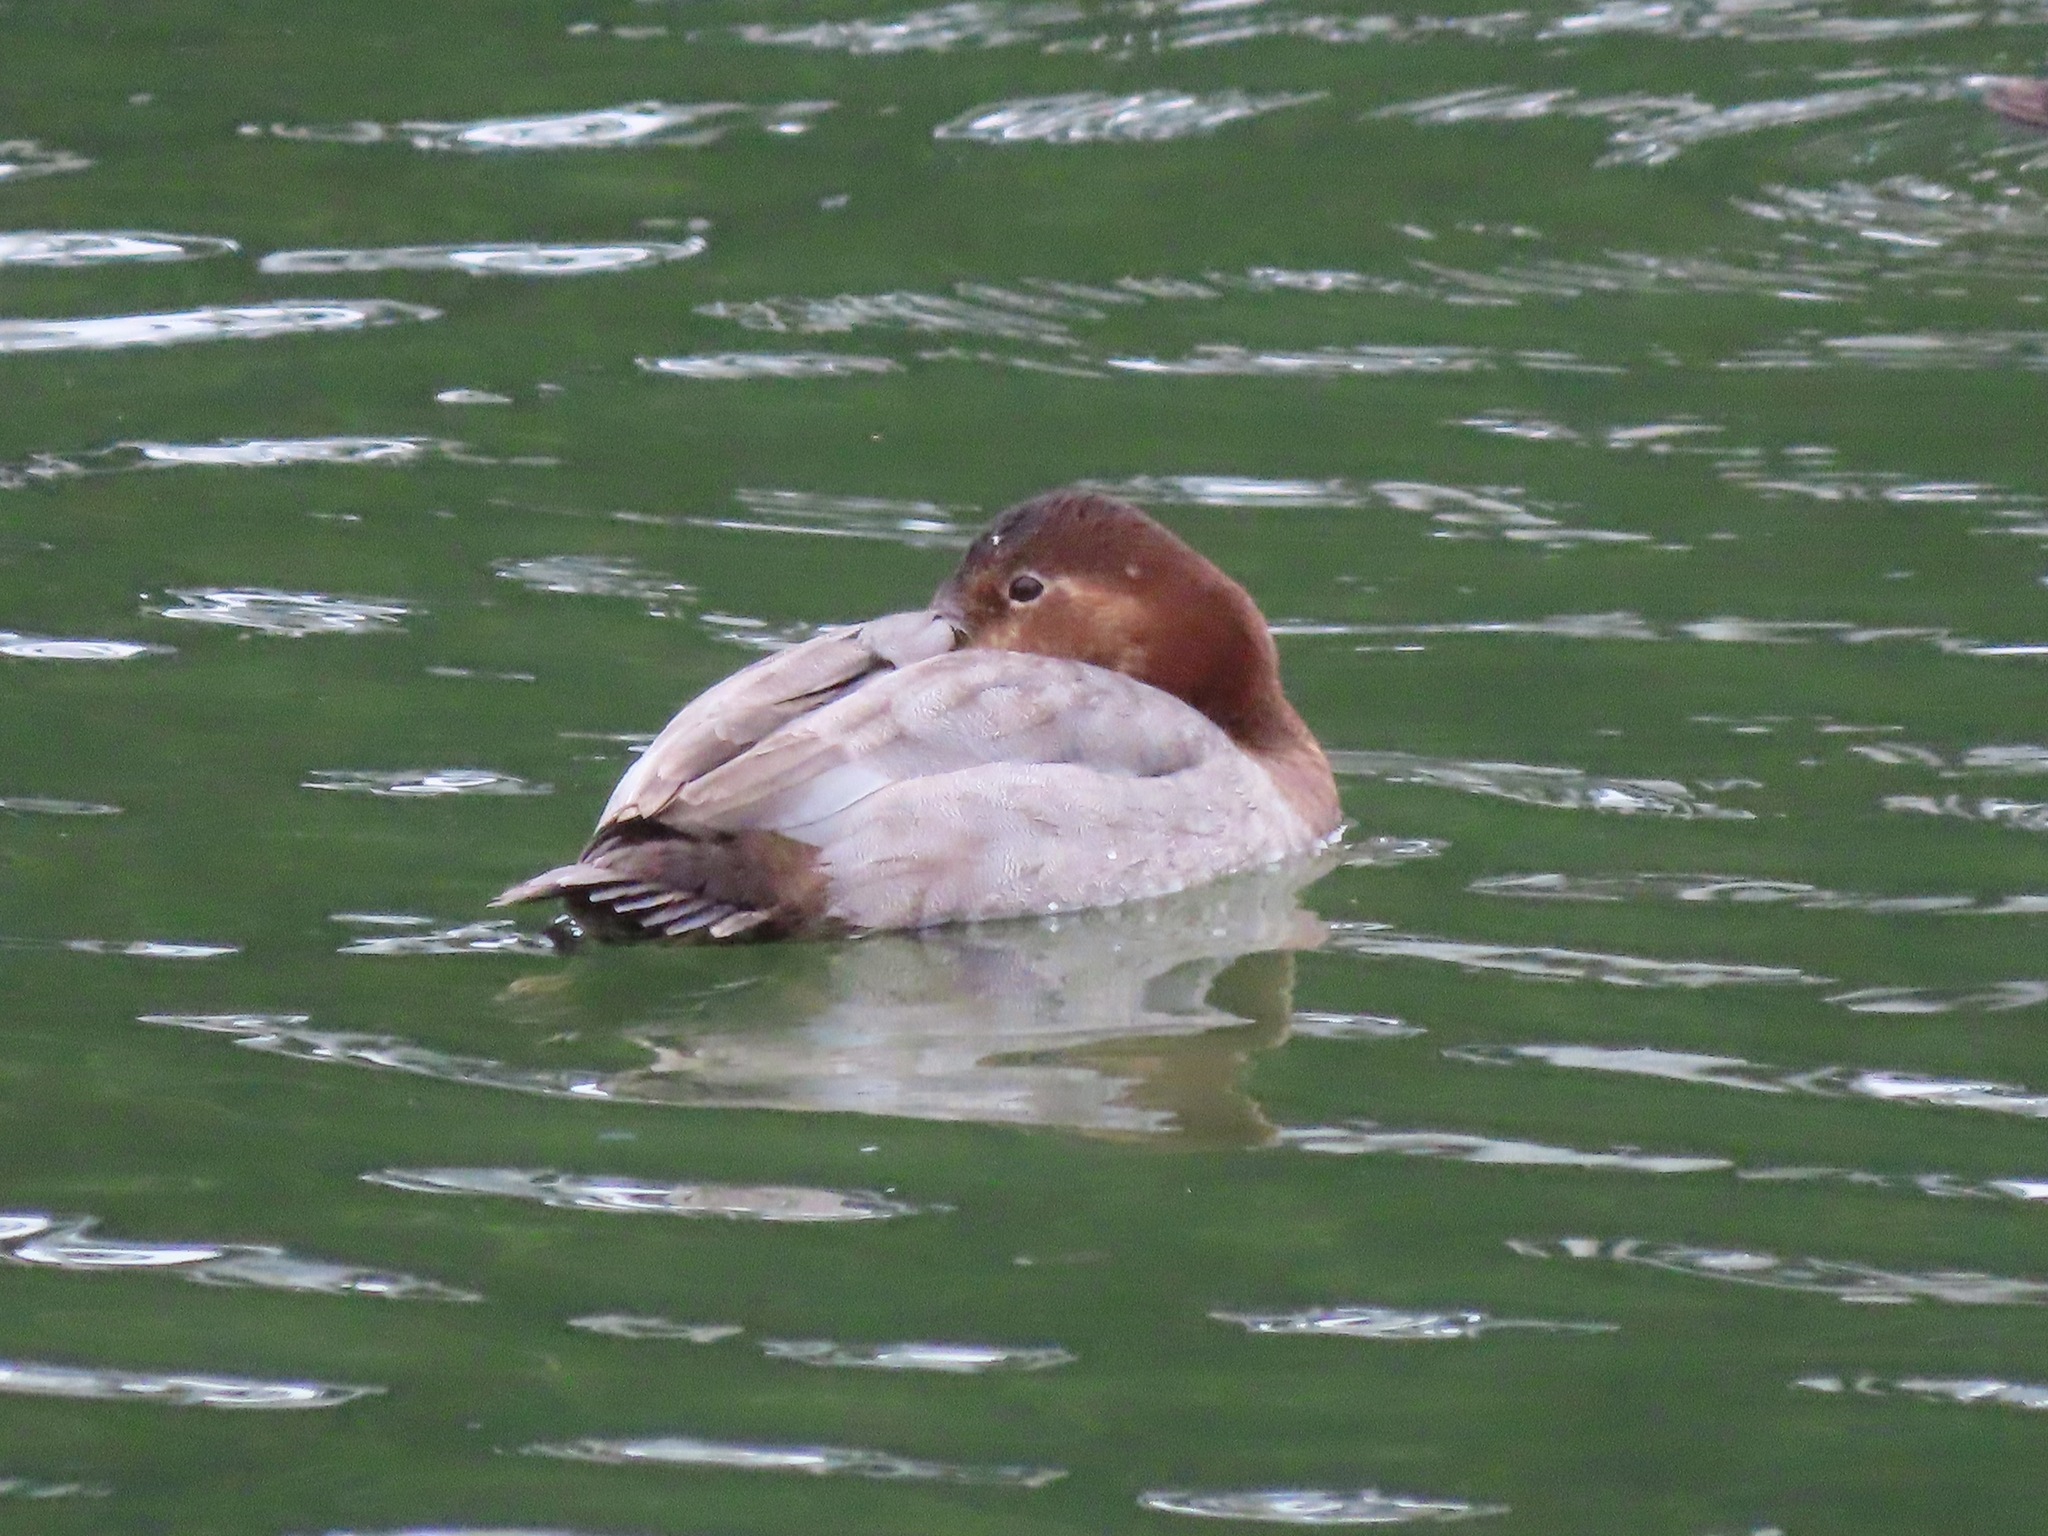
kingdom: Animalia
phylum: Chordata
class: Aves
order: Anseriformes
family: Anatidae
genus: Aythya
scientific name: Aythya ferina
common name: Common pochard
